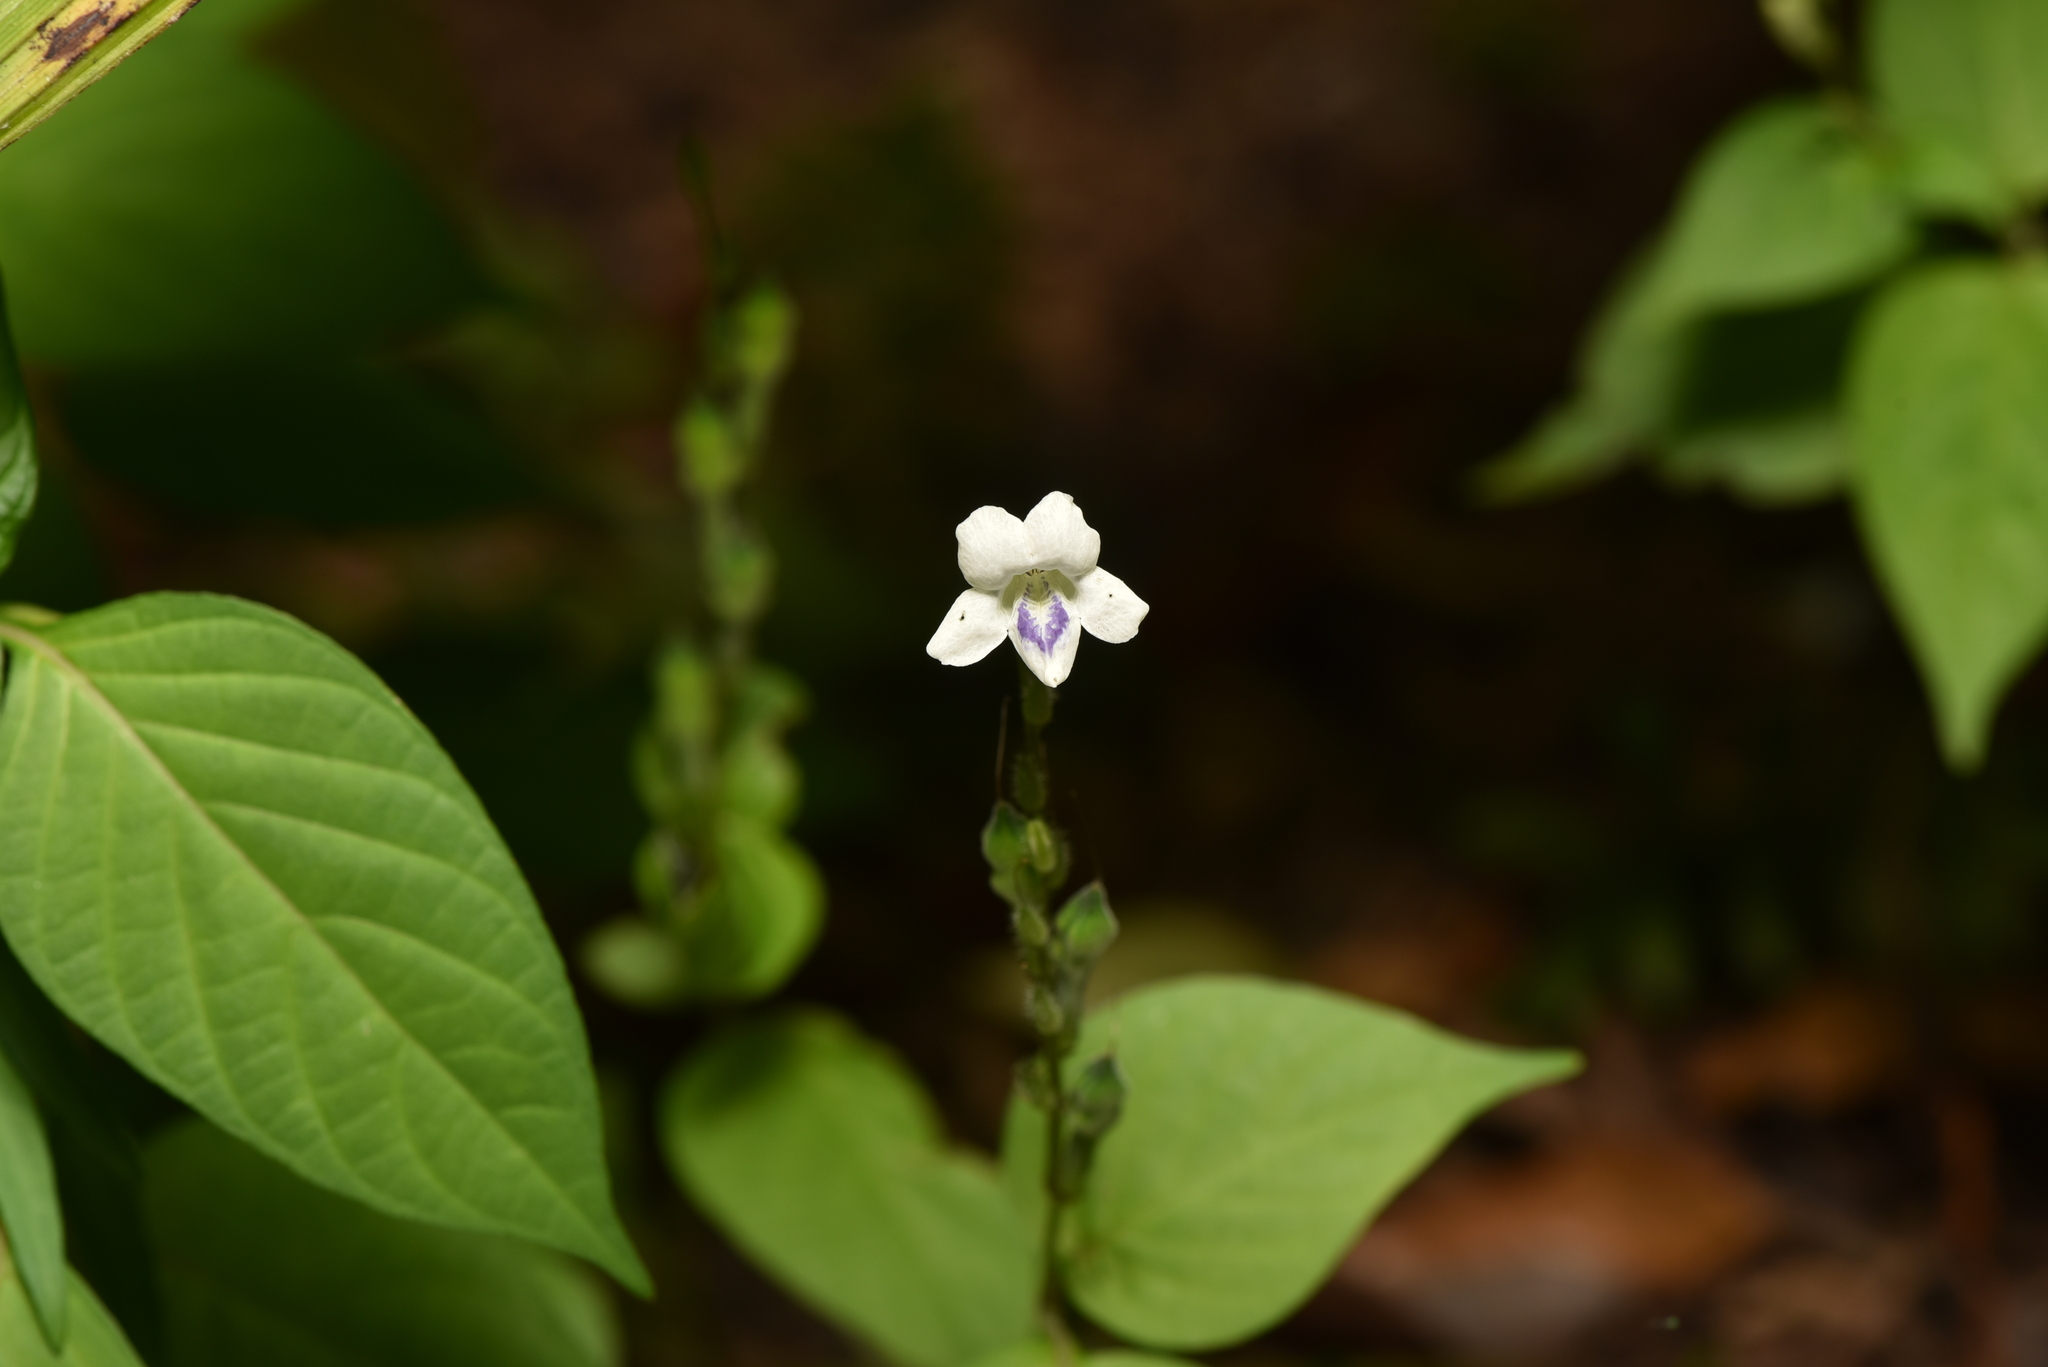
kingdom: Plantae
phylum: Tracheophyta
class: Magnoliopsida
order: Lamiales
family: Acanthaceae
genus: Asystasia
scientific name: Asystasia intrusa
